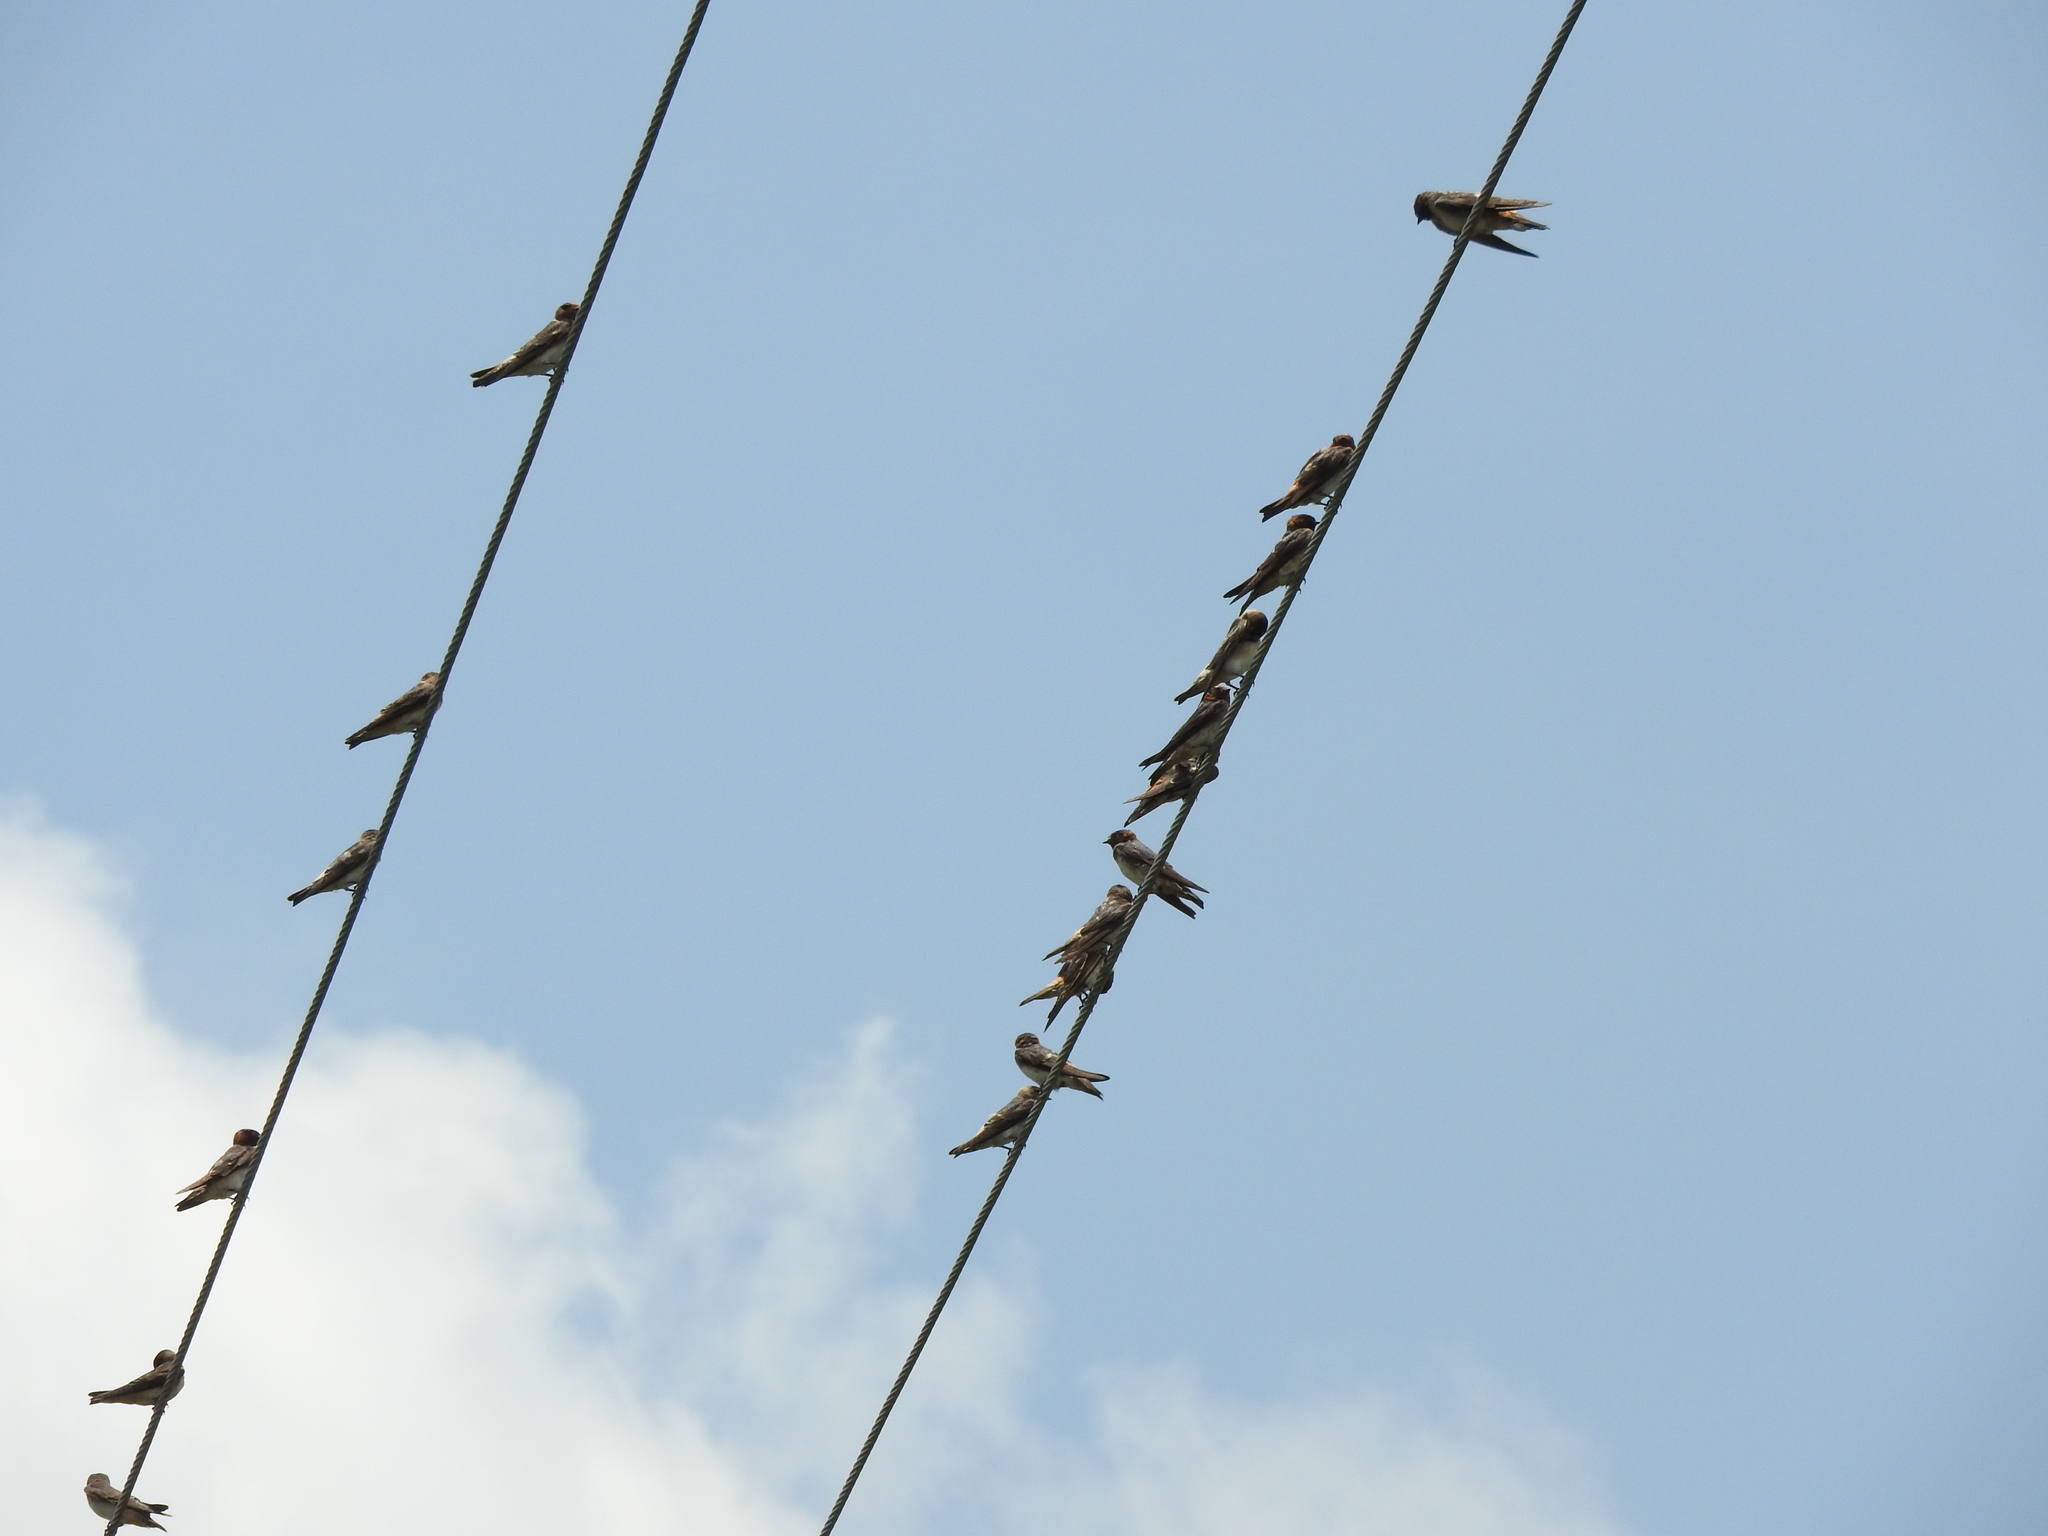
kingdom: Animalia
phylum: Chordata
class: Aves
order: Passeriformes
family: Hirundinidae
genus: Petrochelidon
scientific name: Petrochelidon pyrrhonota
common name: American cliff swallow
